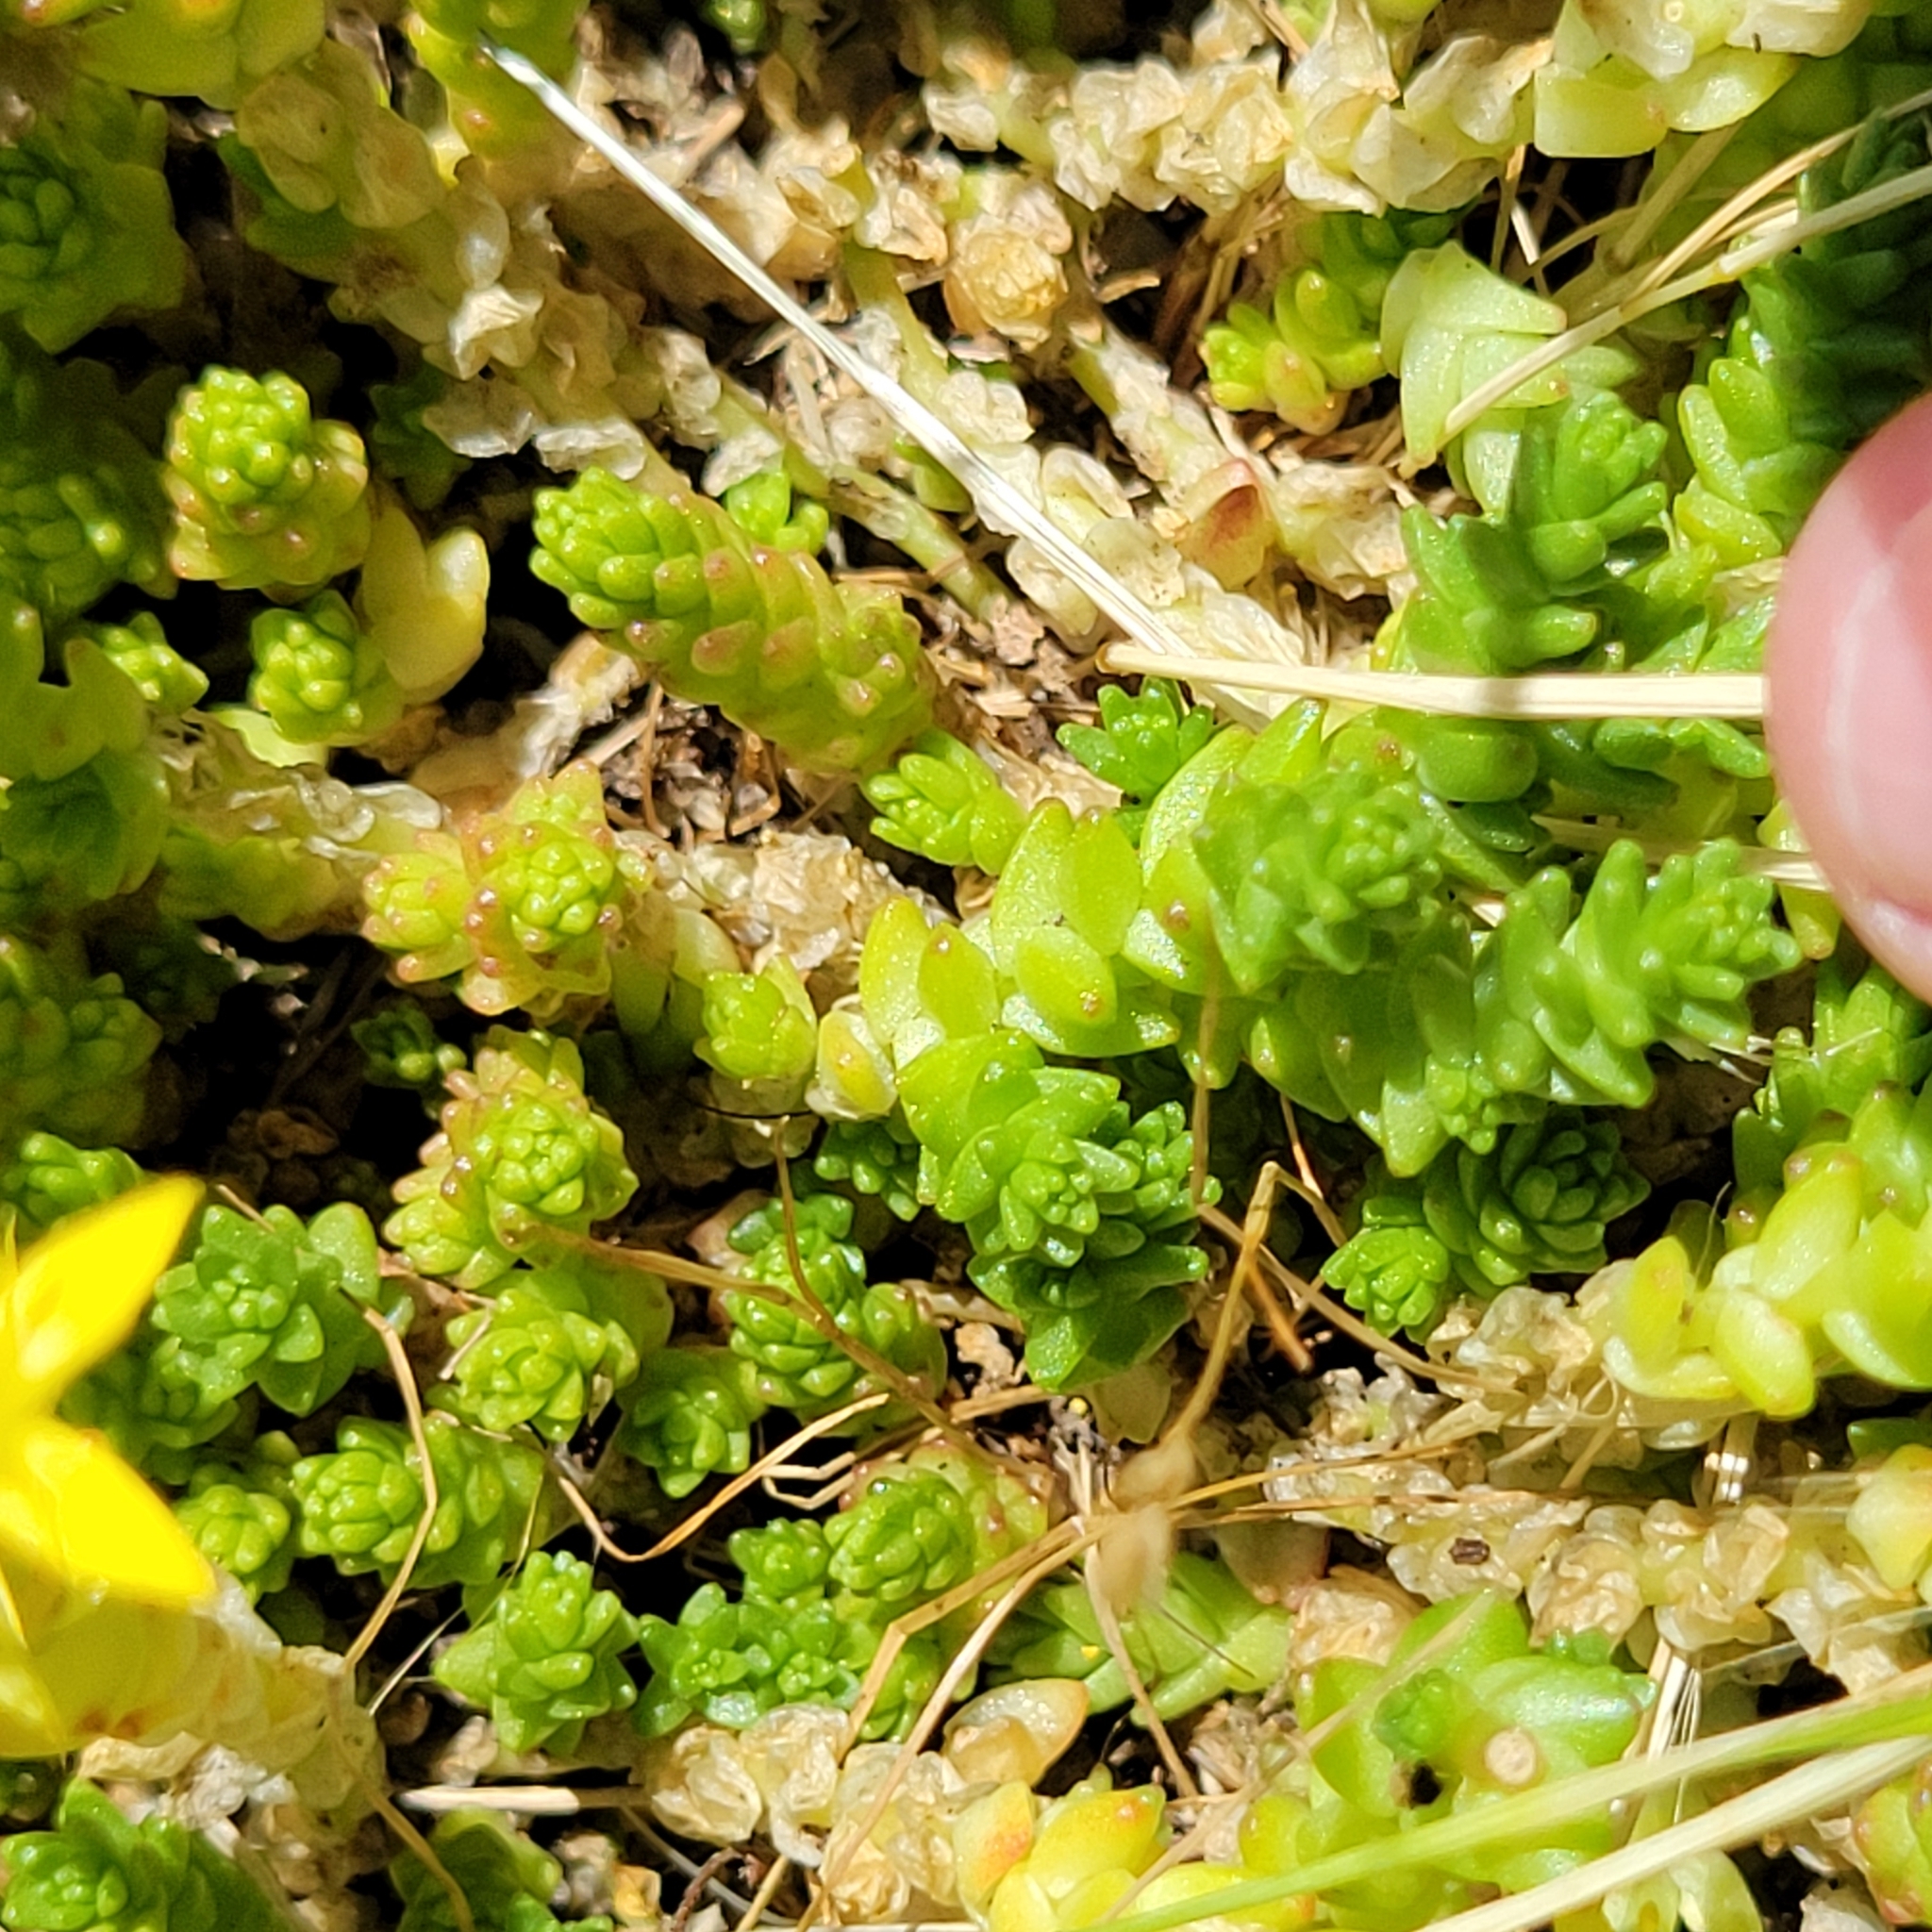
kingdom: Plantae
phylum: Tracheophyta
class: Magnoliopsida
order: Saxifragales
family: Crassulaceae
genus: Sedum
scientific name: Sedum acre
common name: Biting stonecrop
